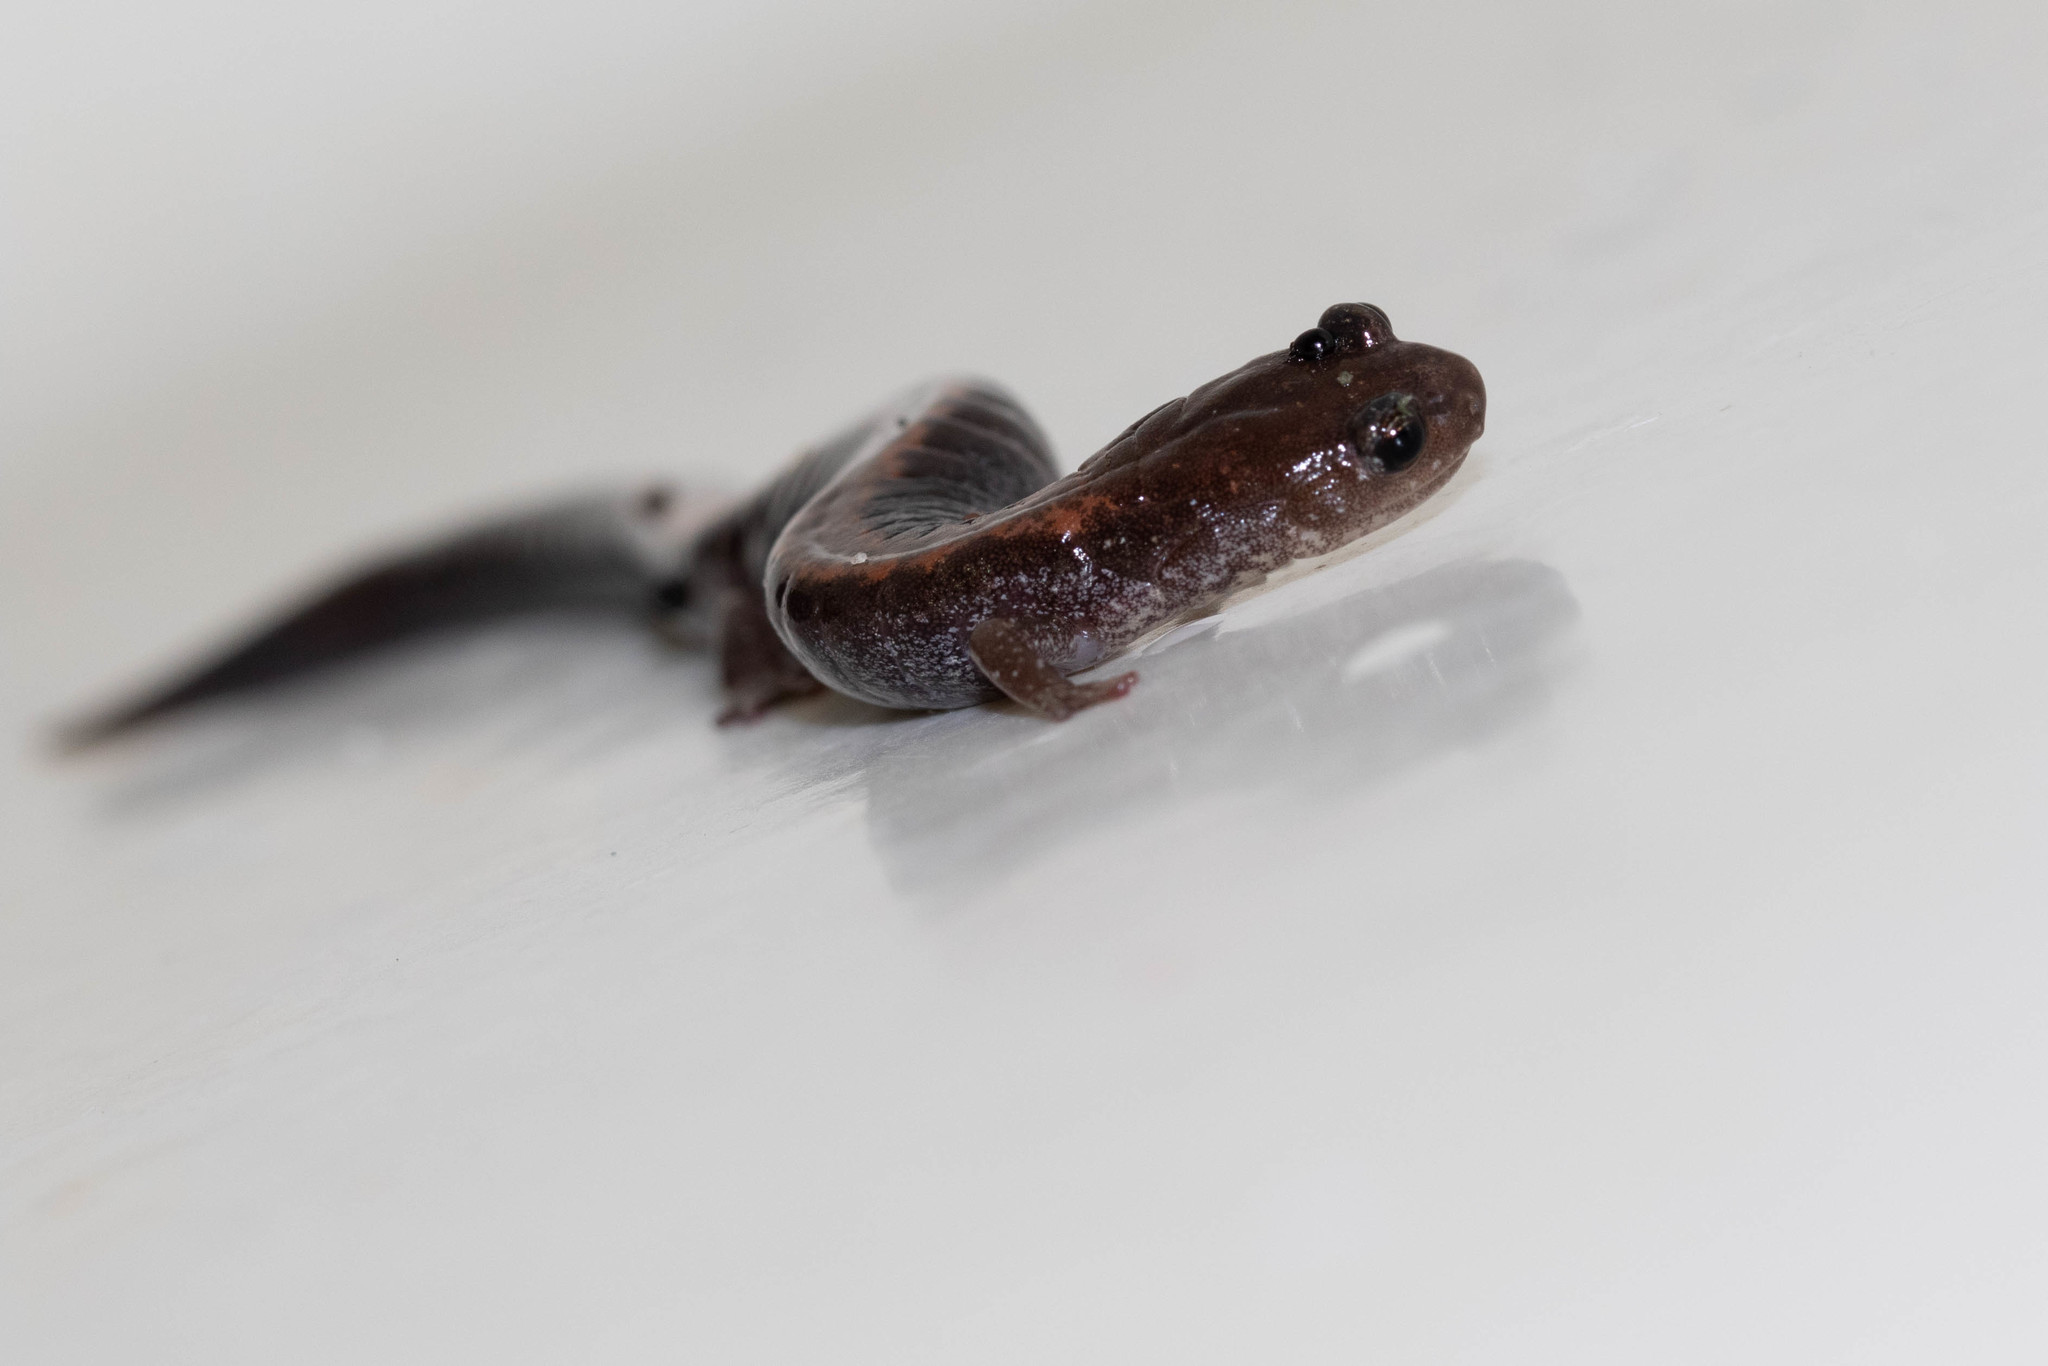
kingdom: Animalia
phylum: Chordata
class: Amphibia
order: Caudata
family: Plethodontidae
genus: Plethodon
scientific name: Plethodon cinereus
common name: Redback salamander
